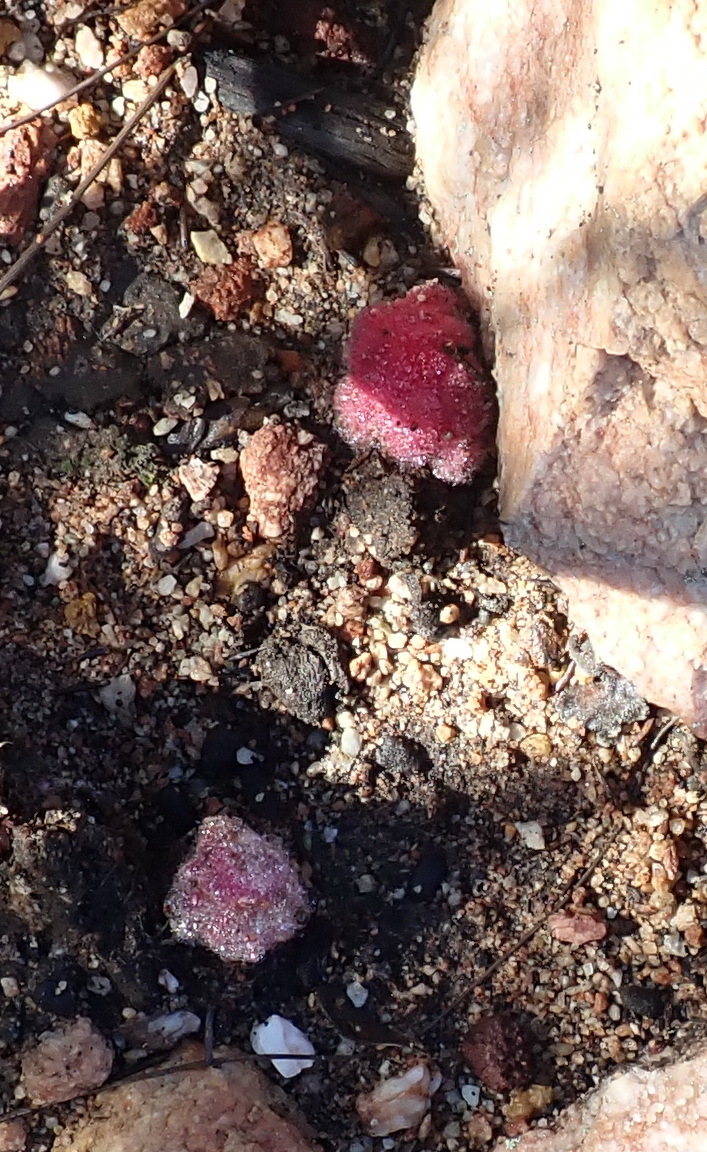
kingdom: Plantae
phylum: Tracheophyta
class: Magnoliopsida
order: Lamiales
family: Orobanchaceae
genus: Harveya
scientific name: Harveya roseoalba
